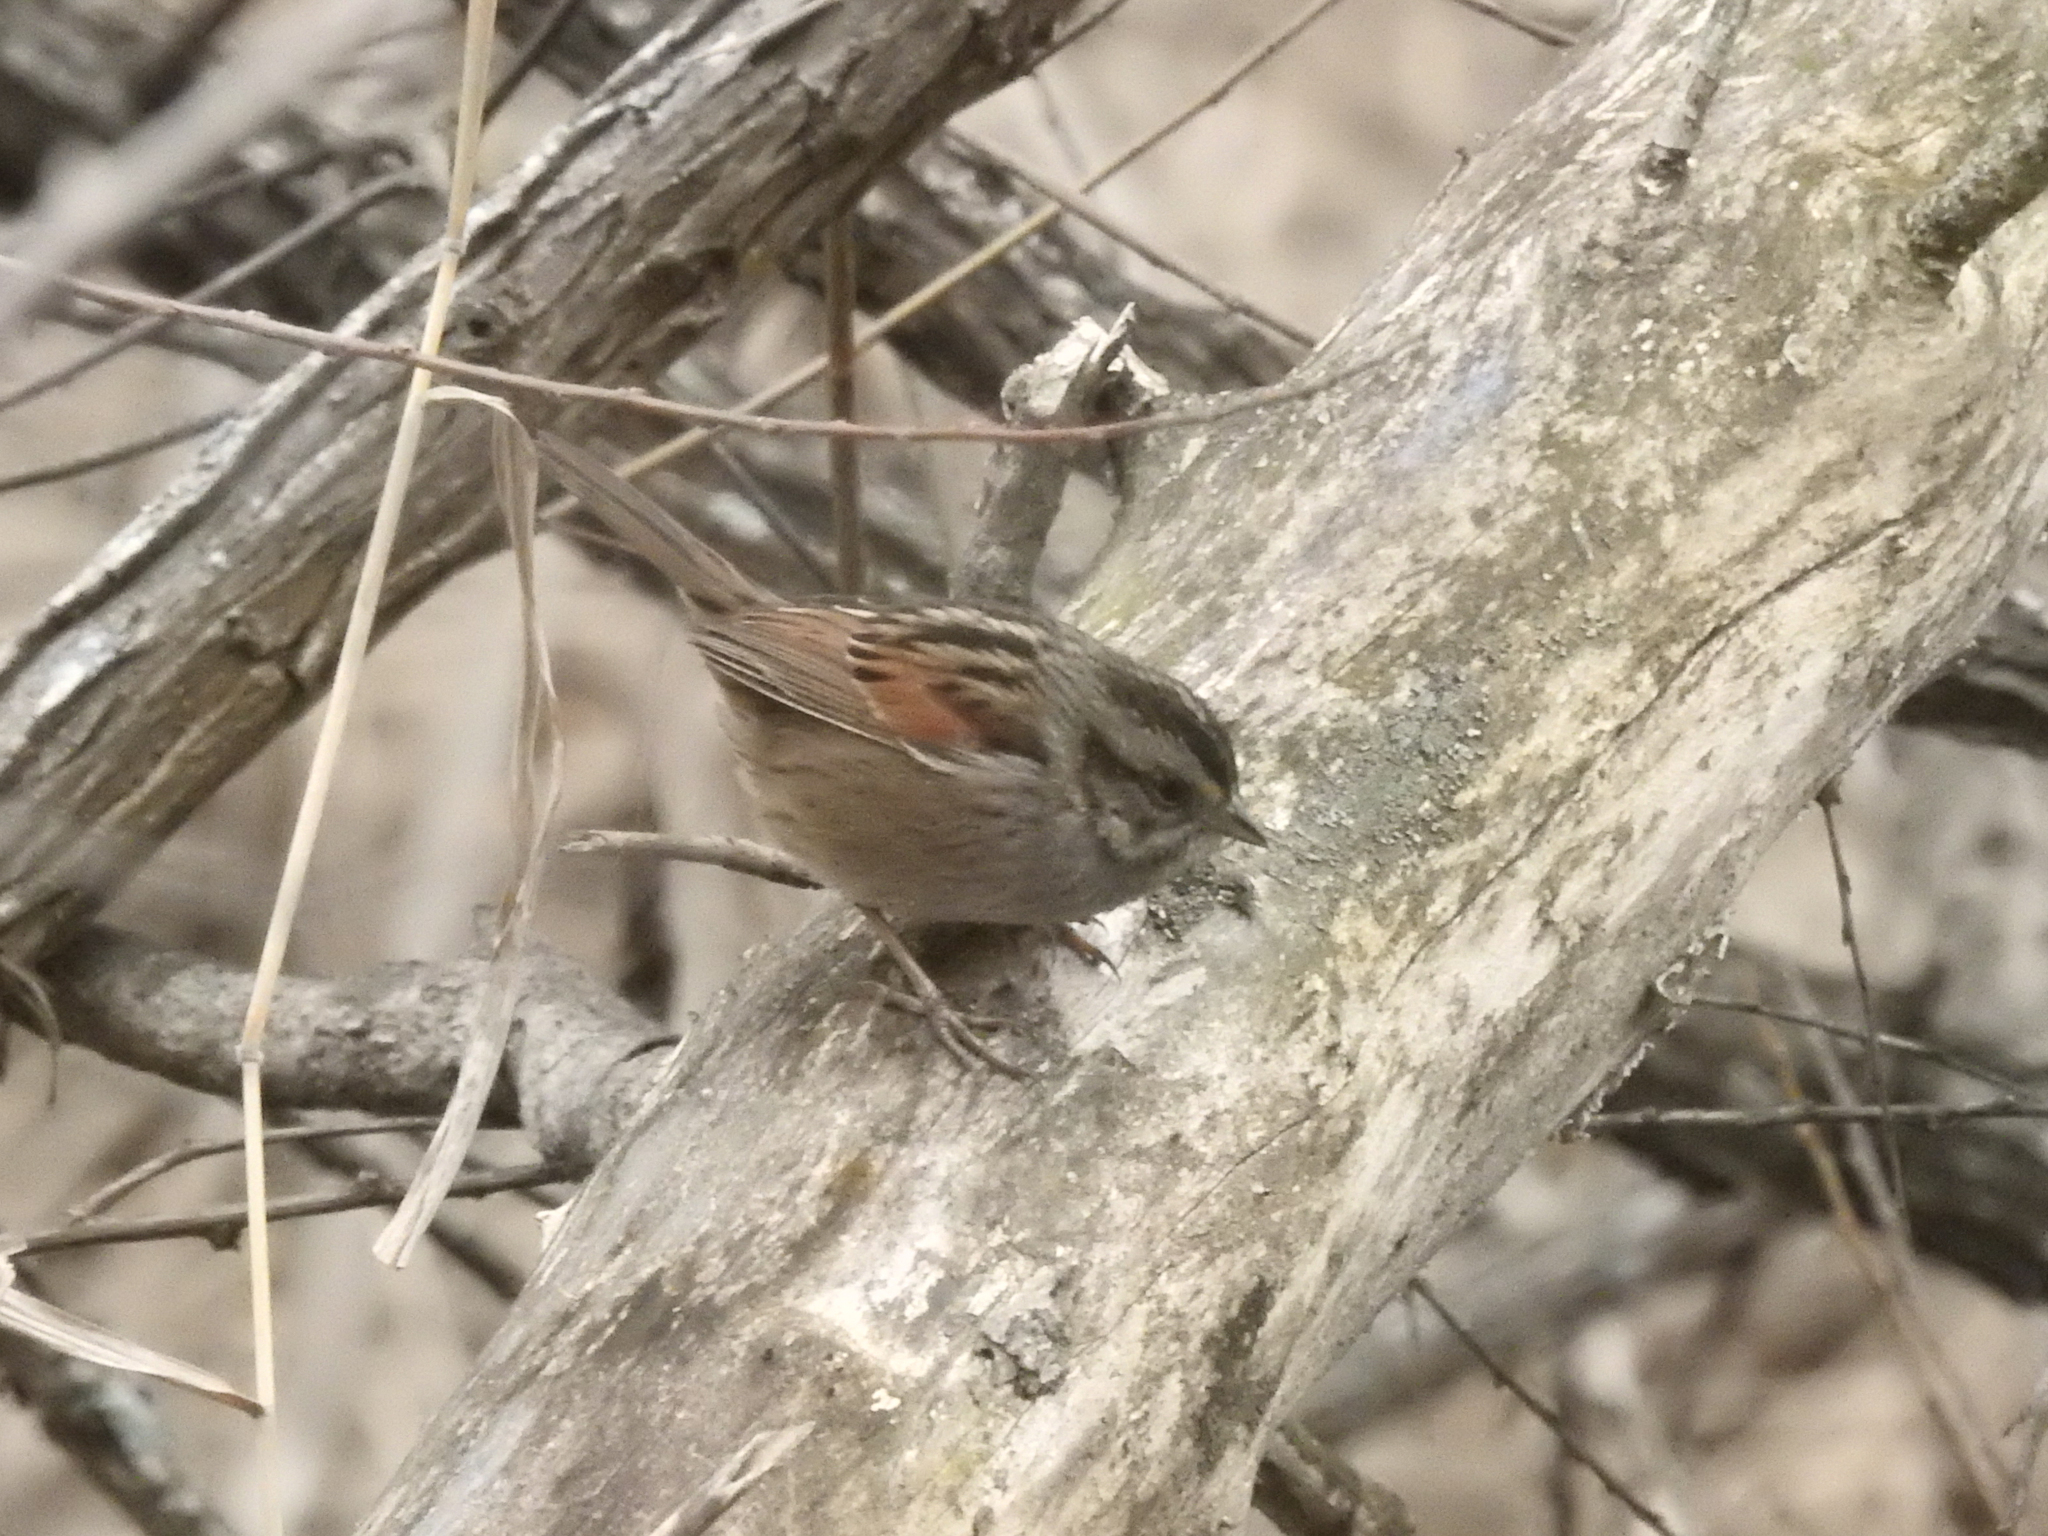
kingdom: Animalia
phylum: Chordata
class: Aves
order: Passeriformes
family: Passerellidae
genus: Melospiza
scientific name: Melospiza georgiana
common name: Swamp sparrow
